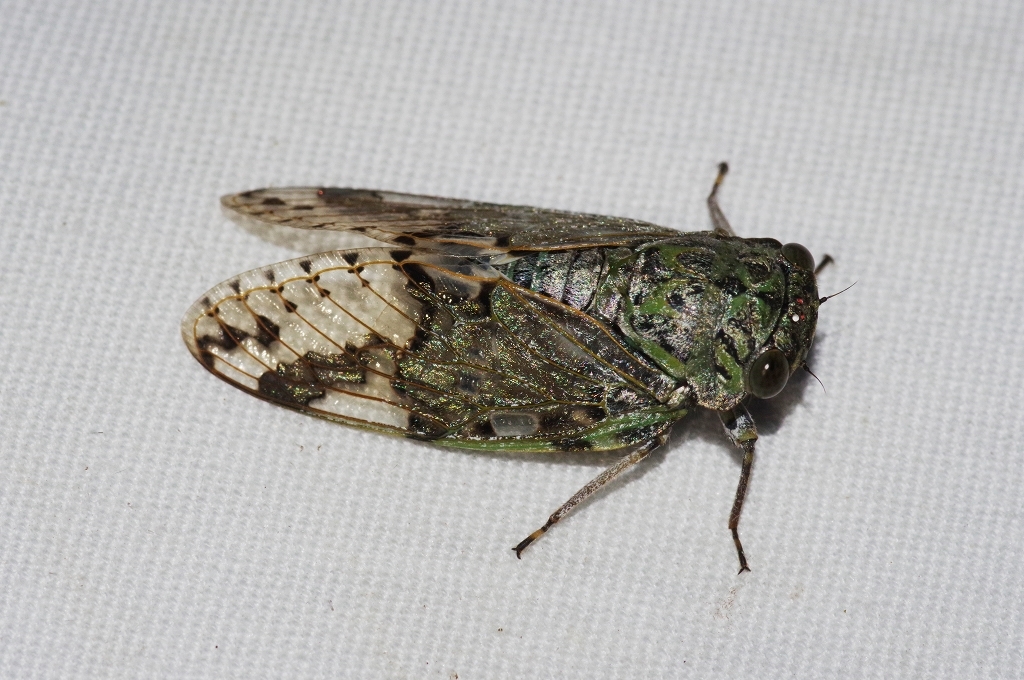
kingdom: Animalia
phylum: Arthropoda
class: Insecta
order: Hemiptera
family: Cicadidae
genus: Platypleura
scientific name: Platypleura kuroiwae
